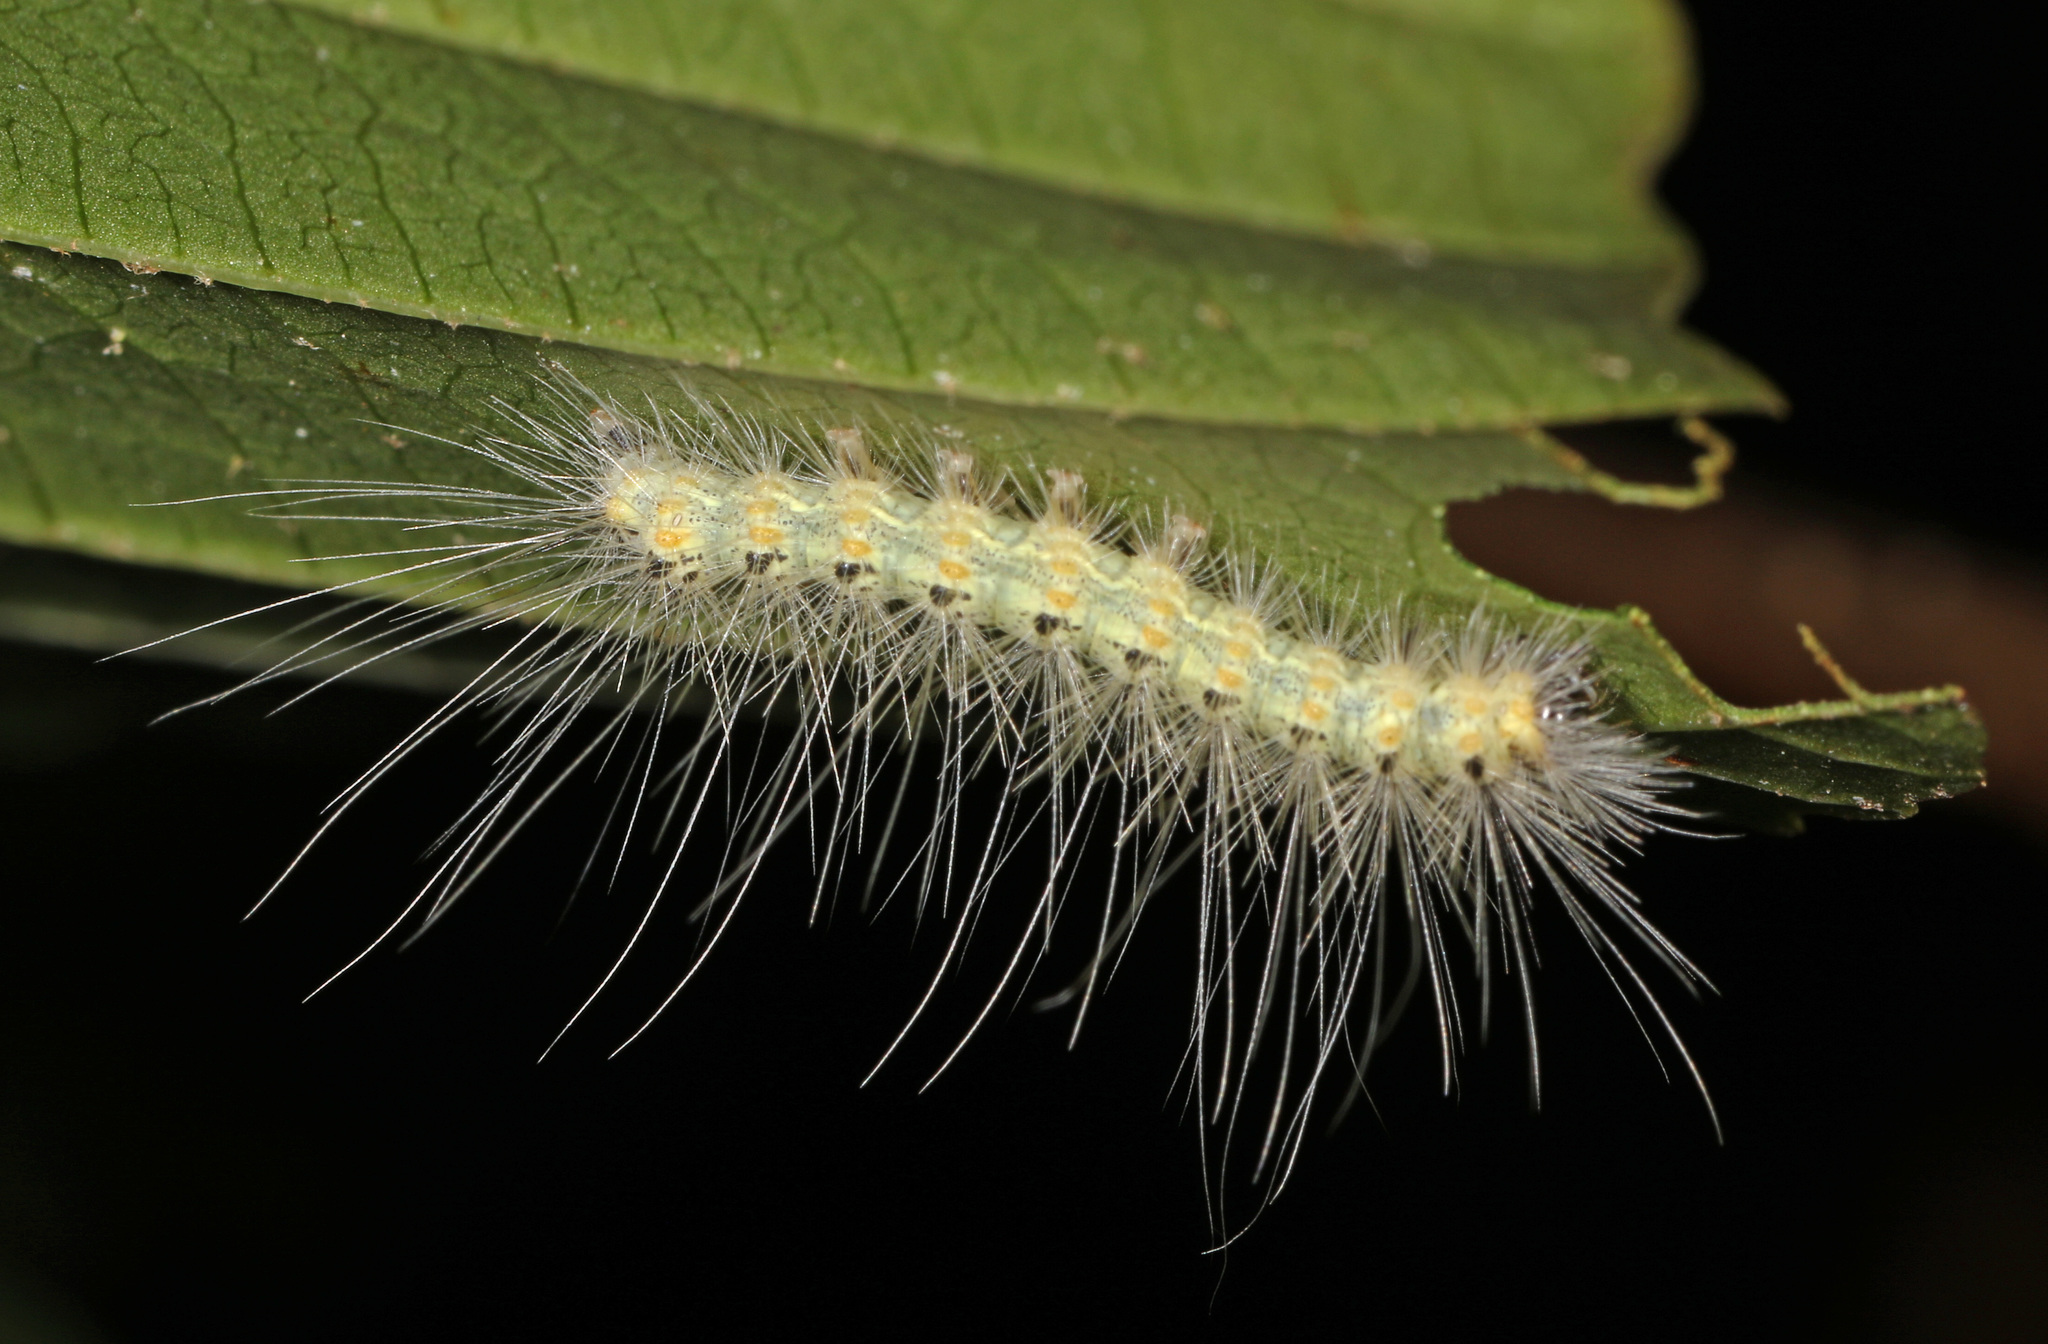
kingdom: Animalia
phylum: Arthropoda
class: Insecta
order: Lepidoptera
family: Erebidae
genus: Hyphantria
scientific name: Hyphantria cunea
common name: American white moth
